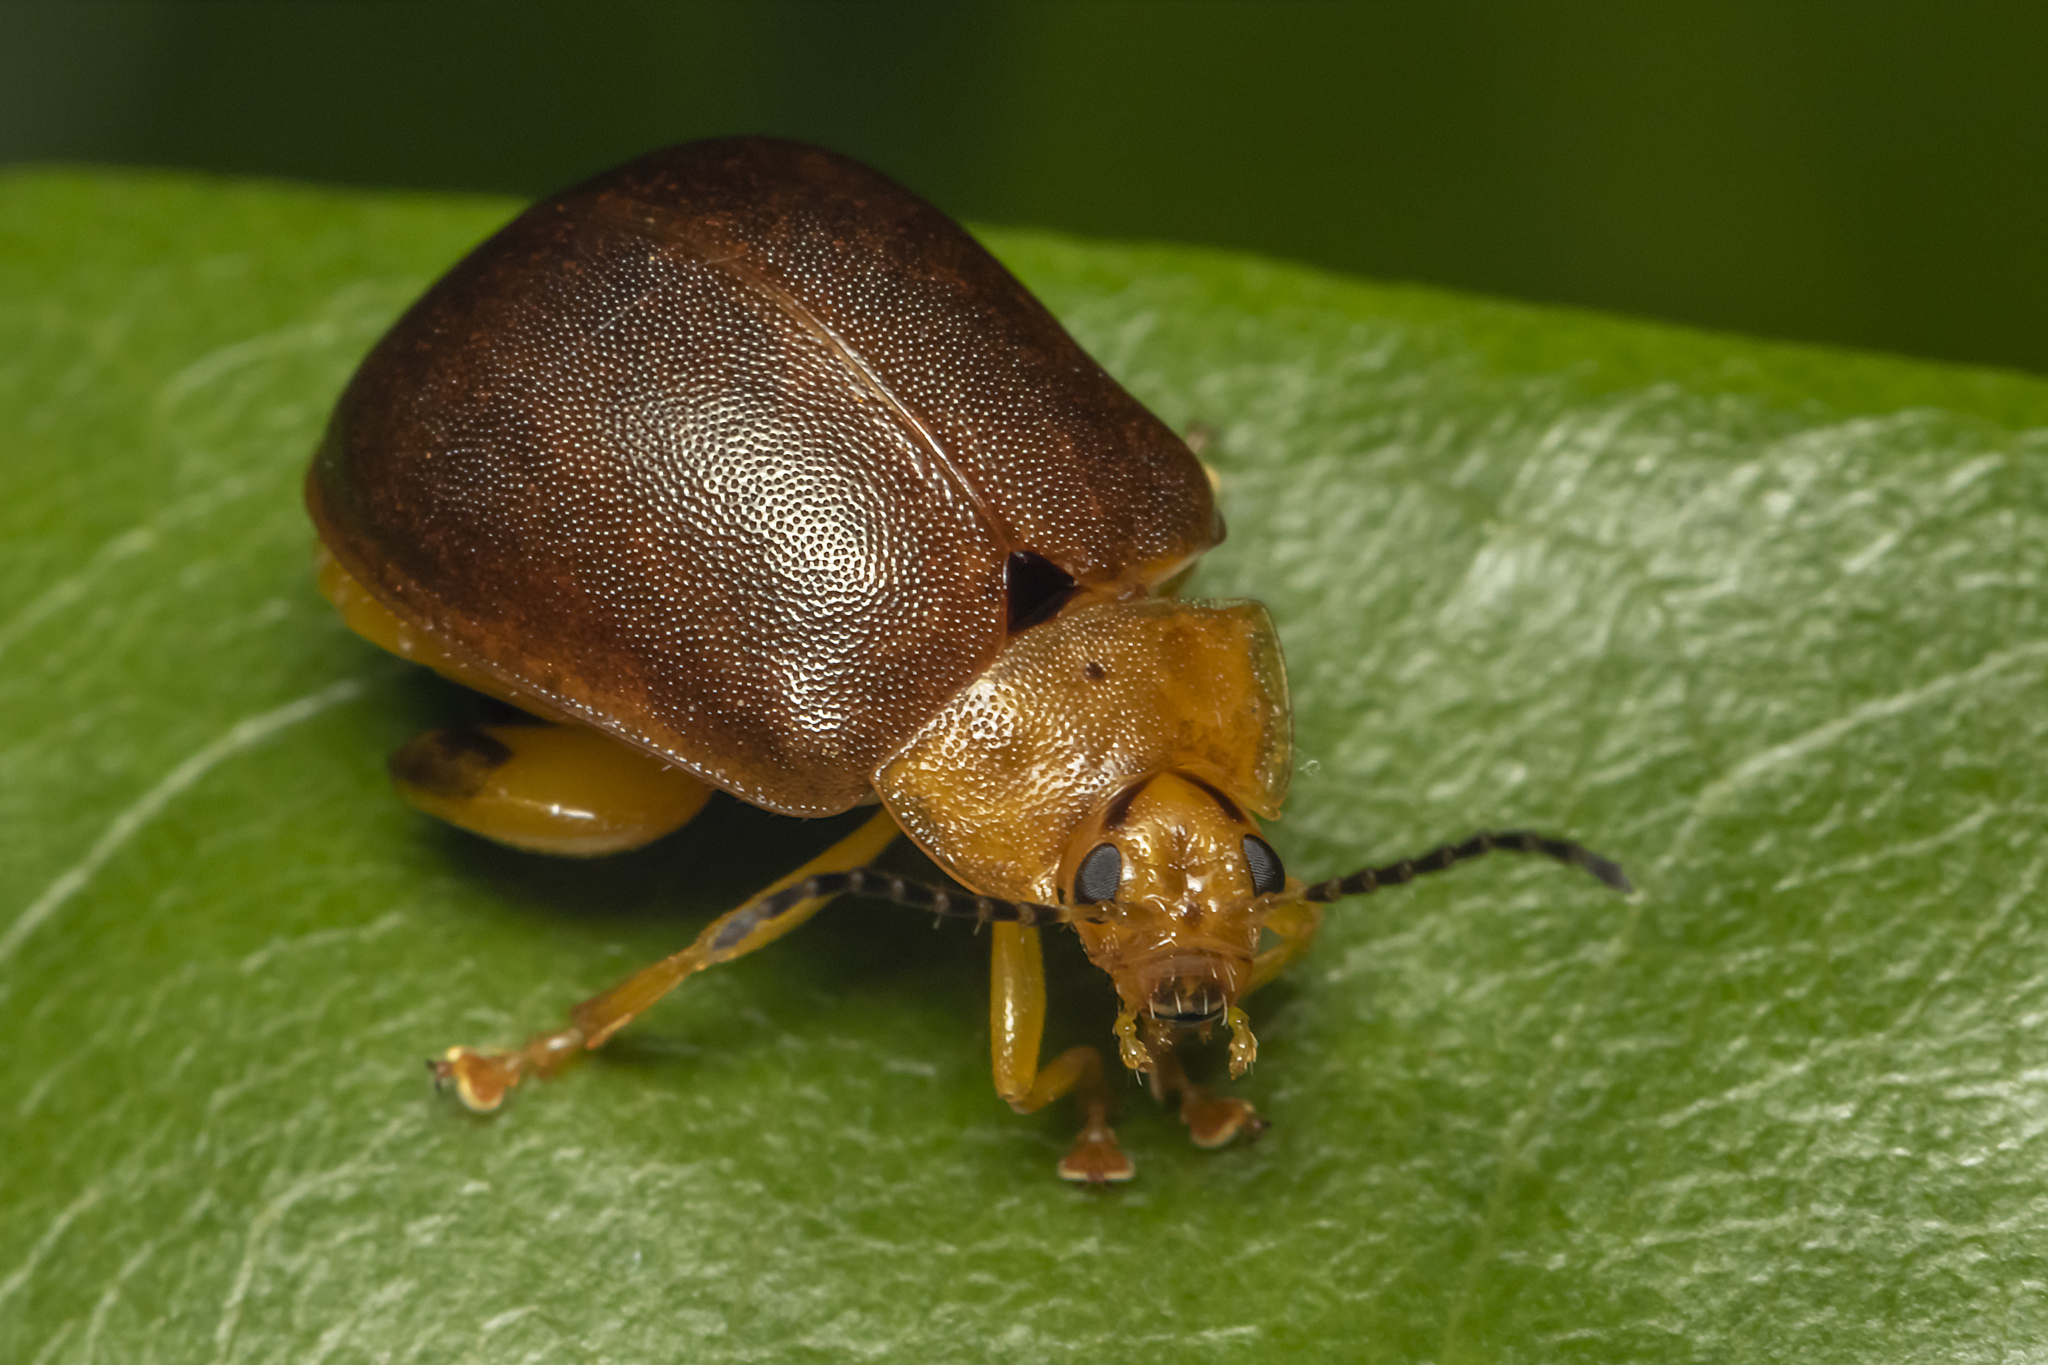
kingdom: Animalia
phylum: Arthropoda
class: Insecta
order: Coleoptera
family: Chrysomelidae
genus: Paranaita
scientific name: Paranaita
